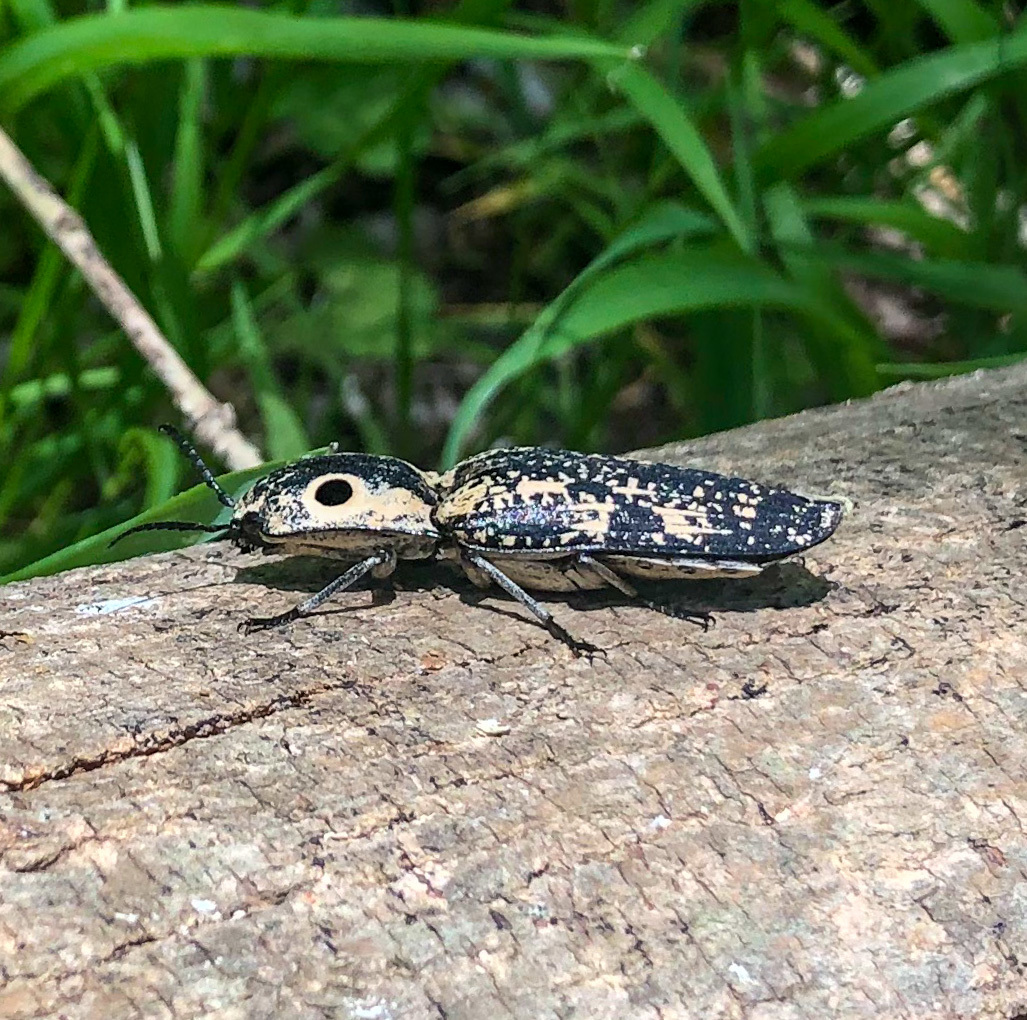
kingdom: Animalia
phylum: Arthropoda
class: Insecta
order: Coleoptera
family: Elateridae
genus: Alaus
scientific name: Alaus
